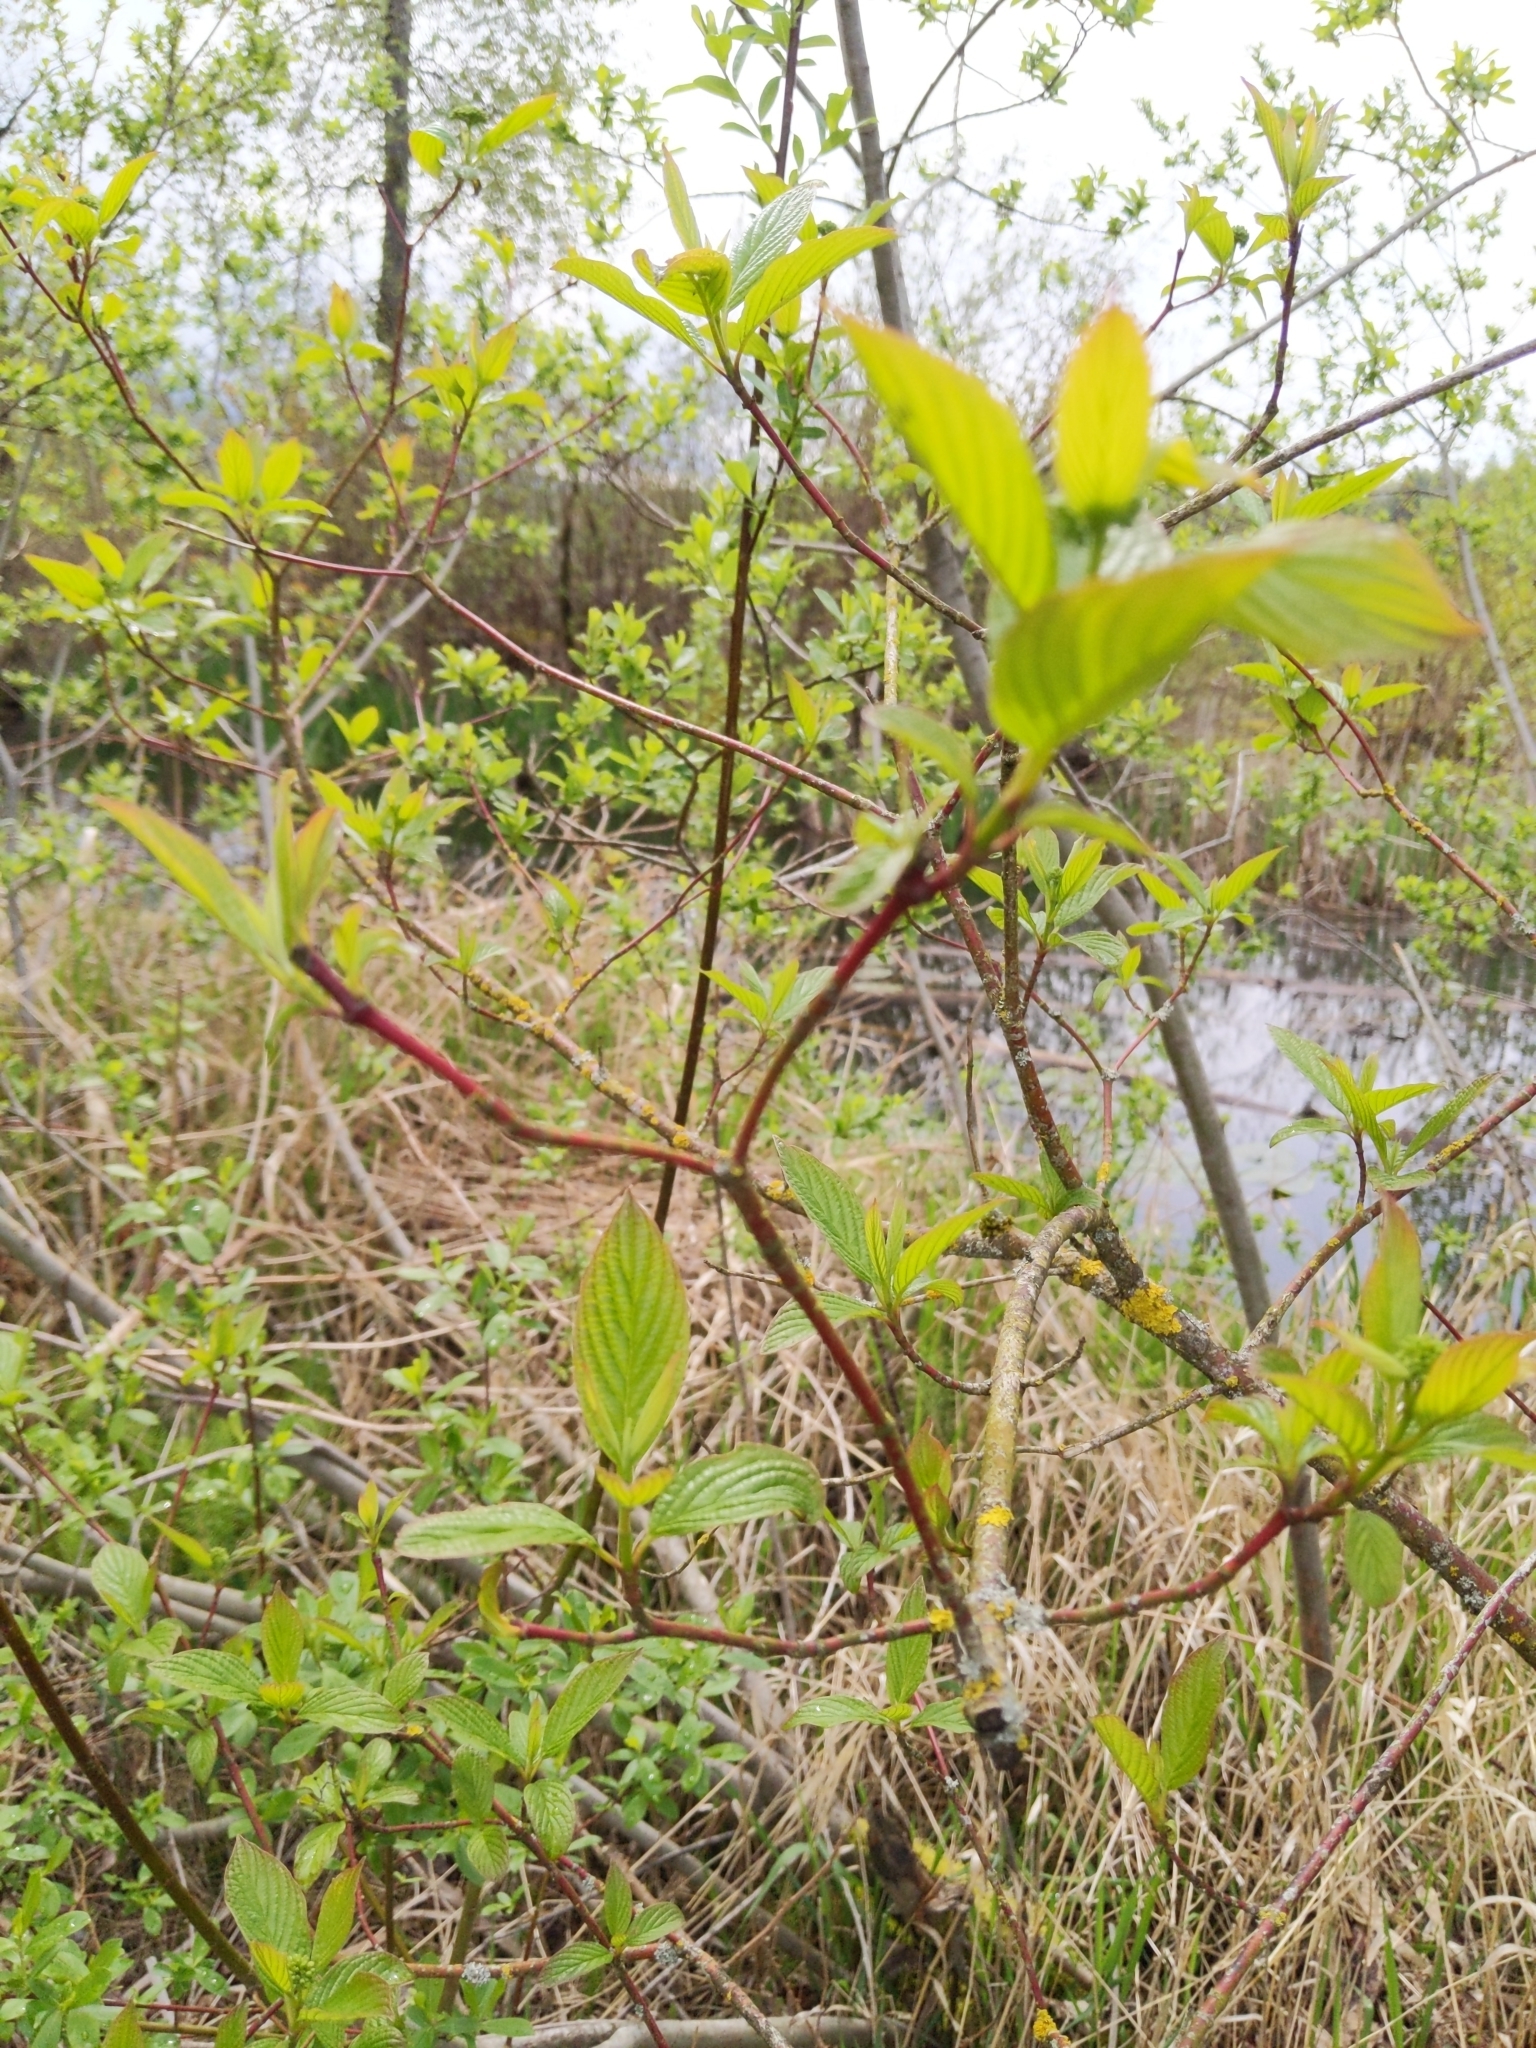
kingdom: Plantae
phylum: Tracheophyta
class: Magnoliopsida
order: Cornales
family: Cornaceae
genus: Cornus
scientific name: Cornus sericea
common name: Red-osier dogwood
